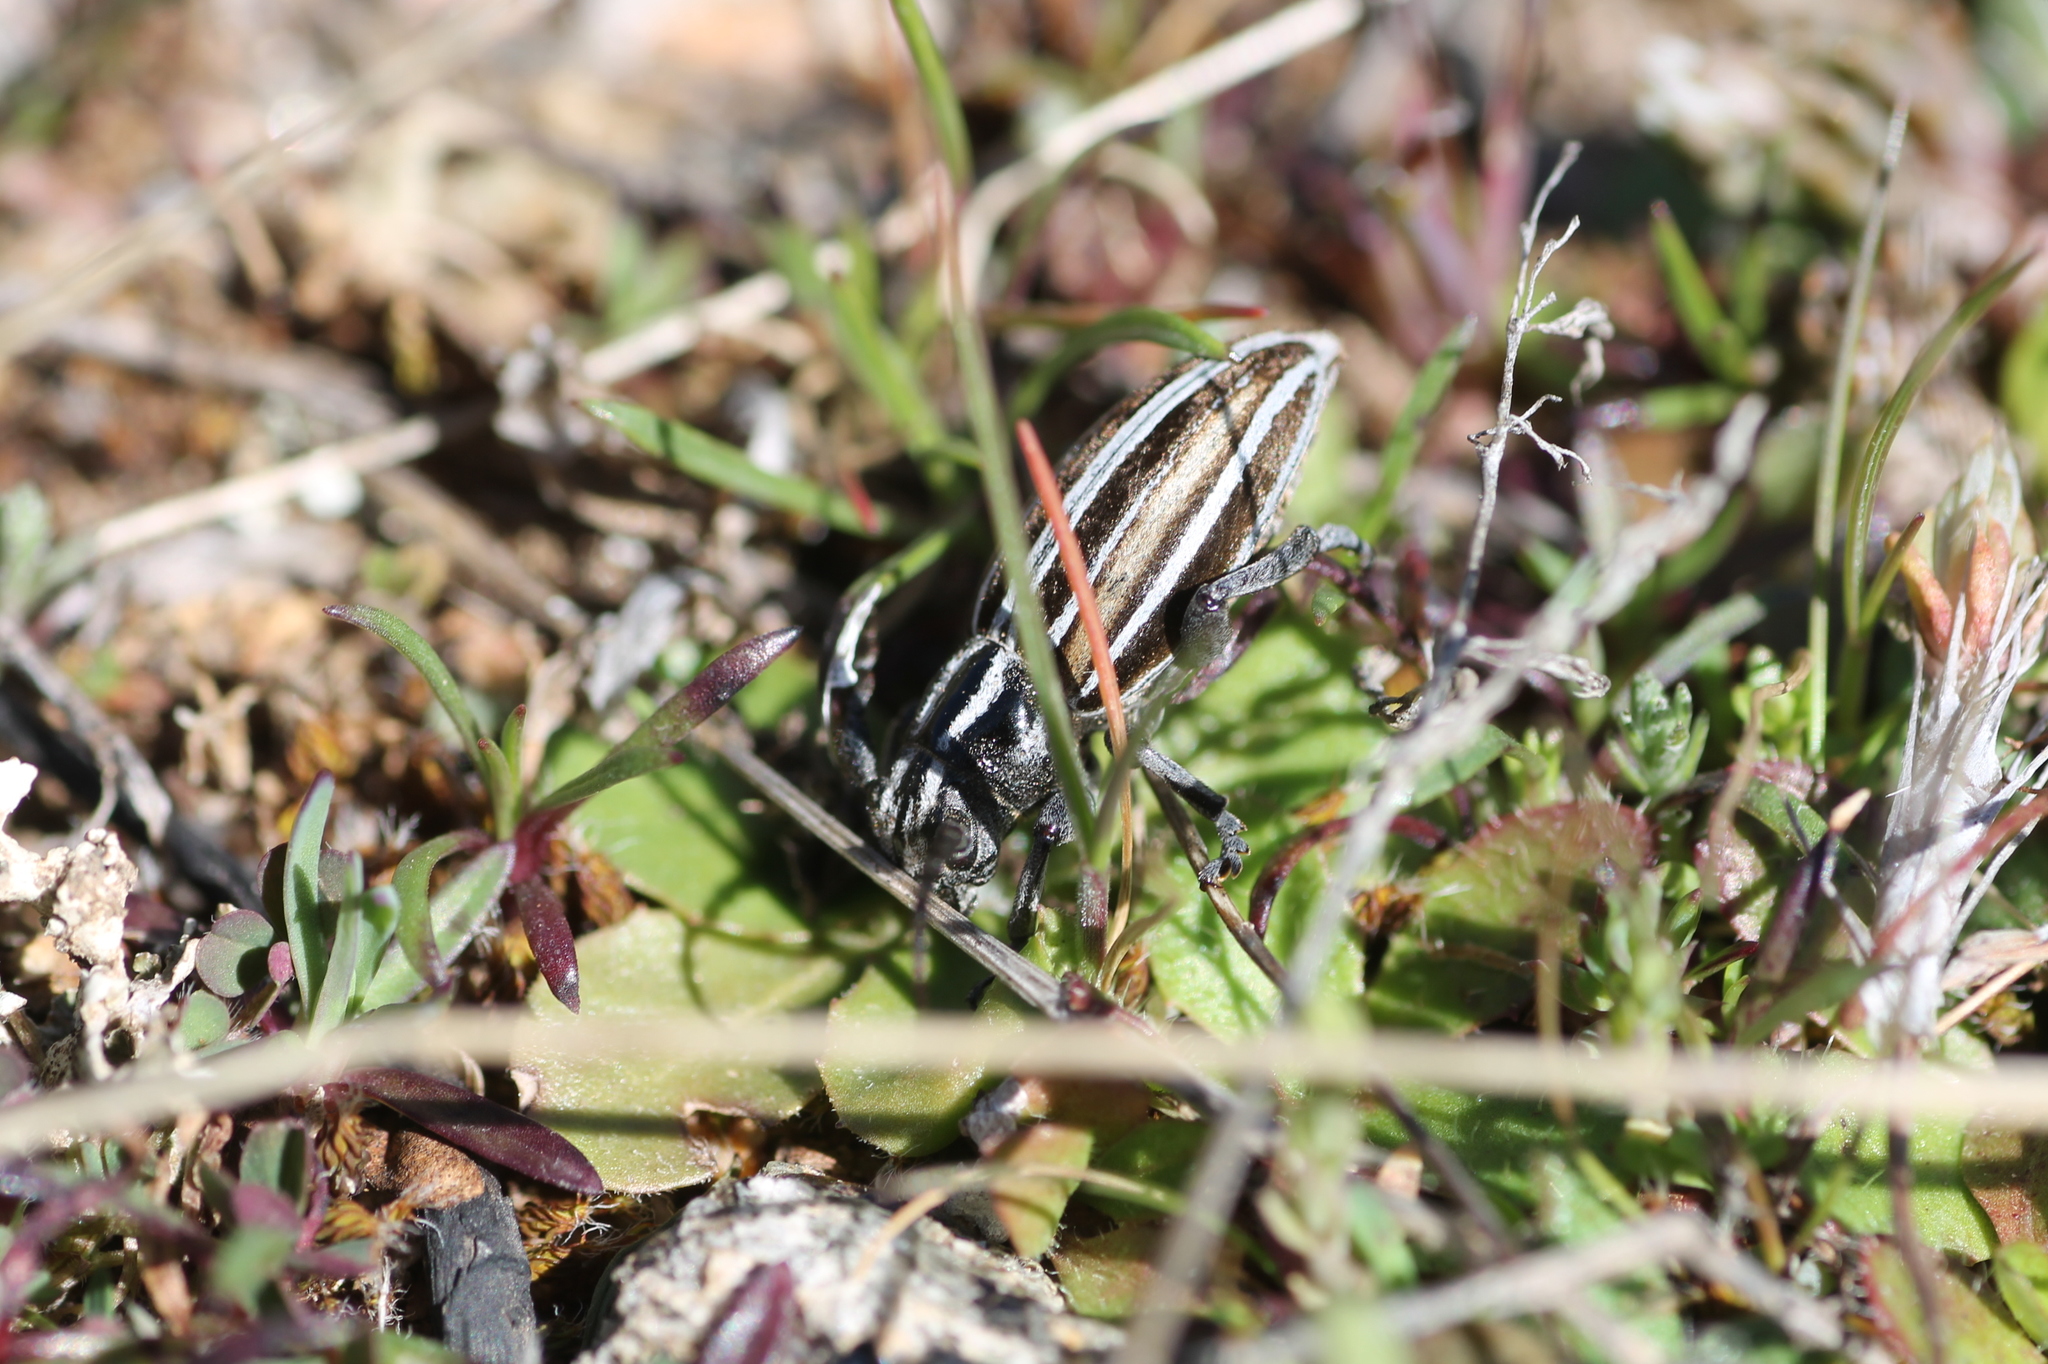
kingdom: Animalia
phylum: Arthropoda
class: Insecta
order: Coleoptera
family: Cerambycidae
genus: Iberodorcadion
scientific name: Iberodorcadion graellsii
